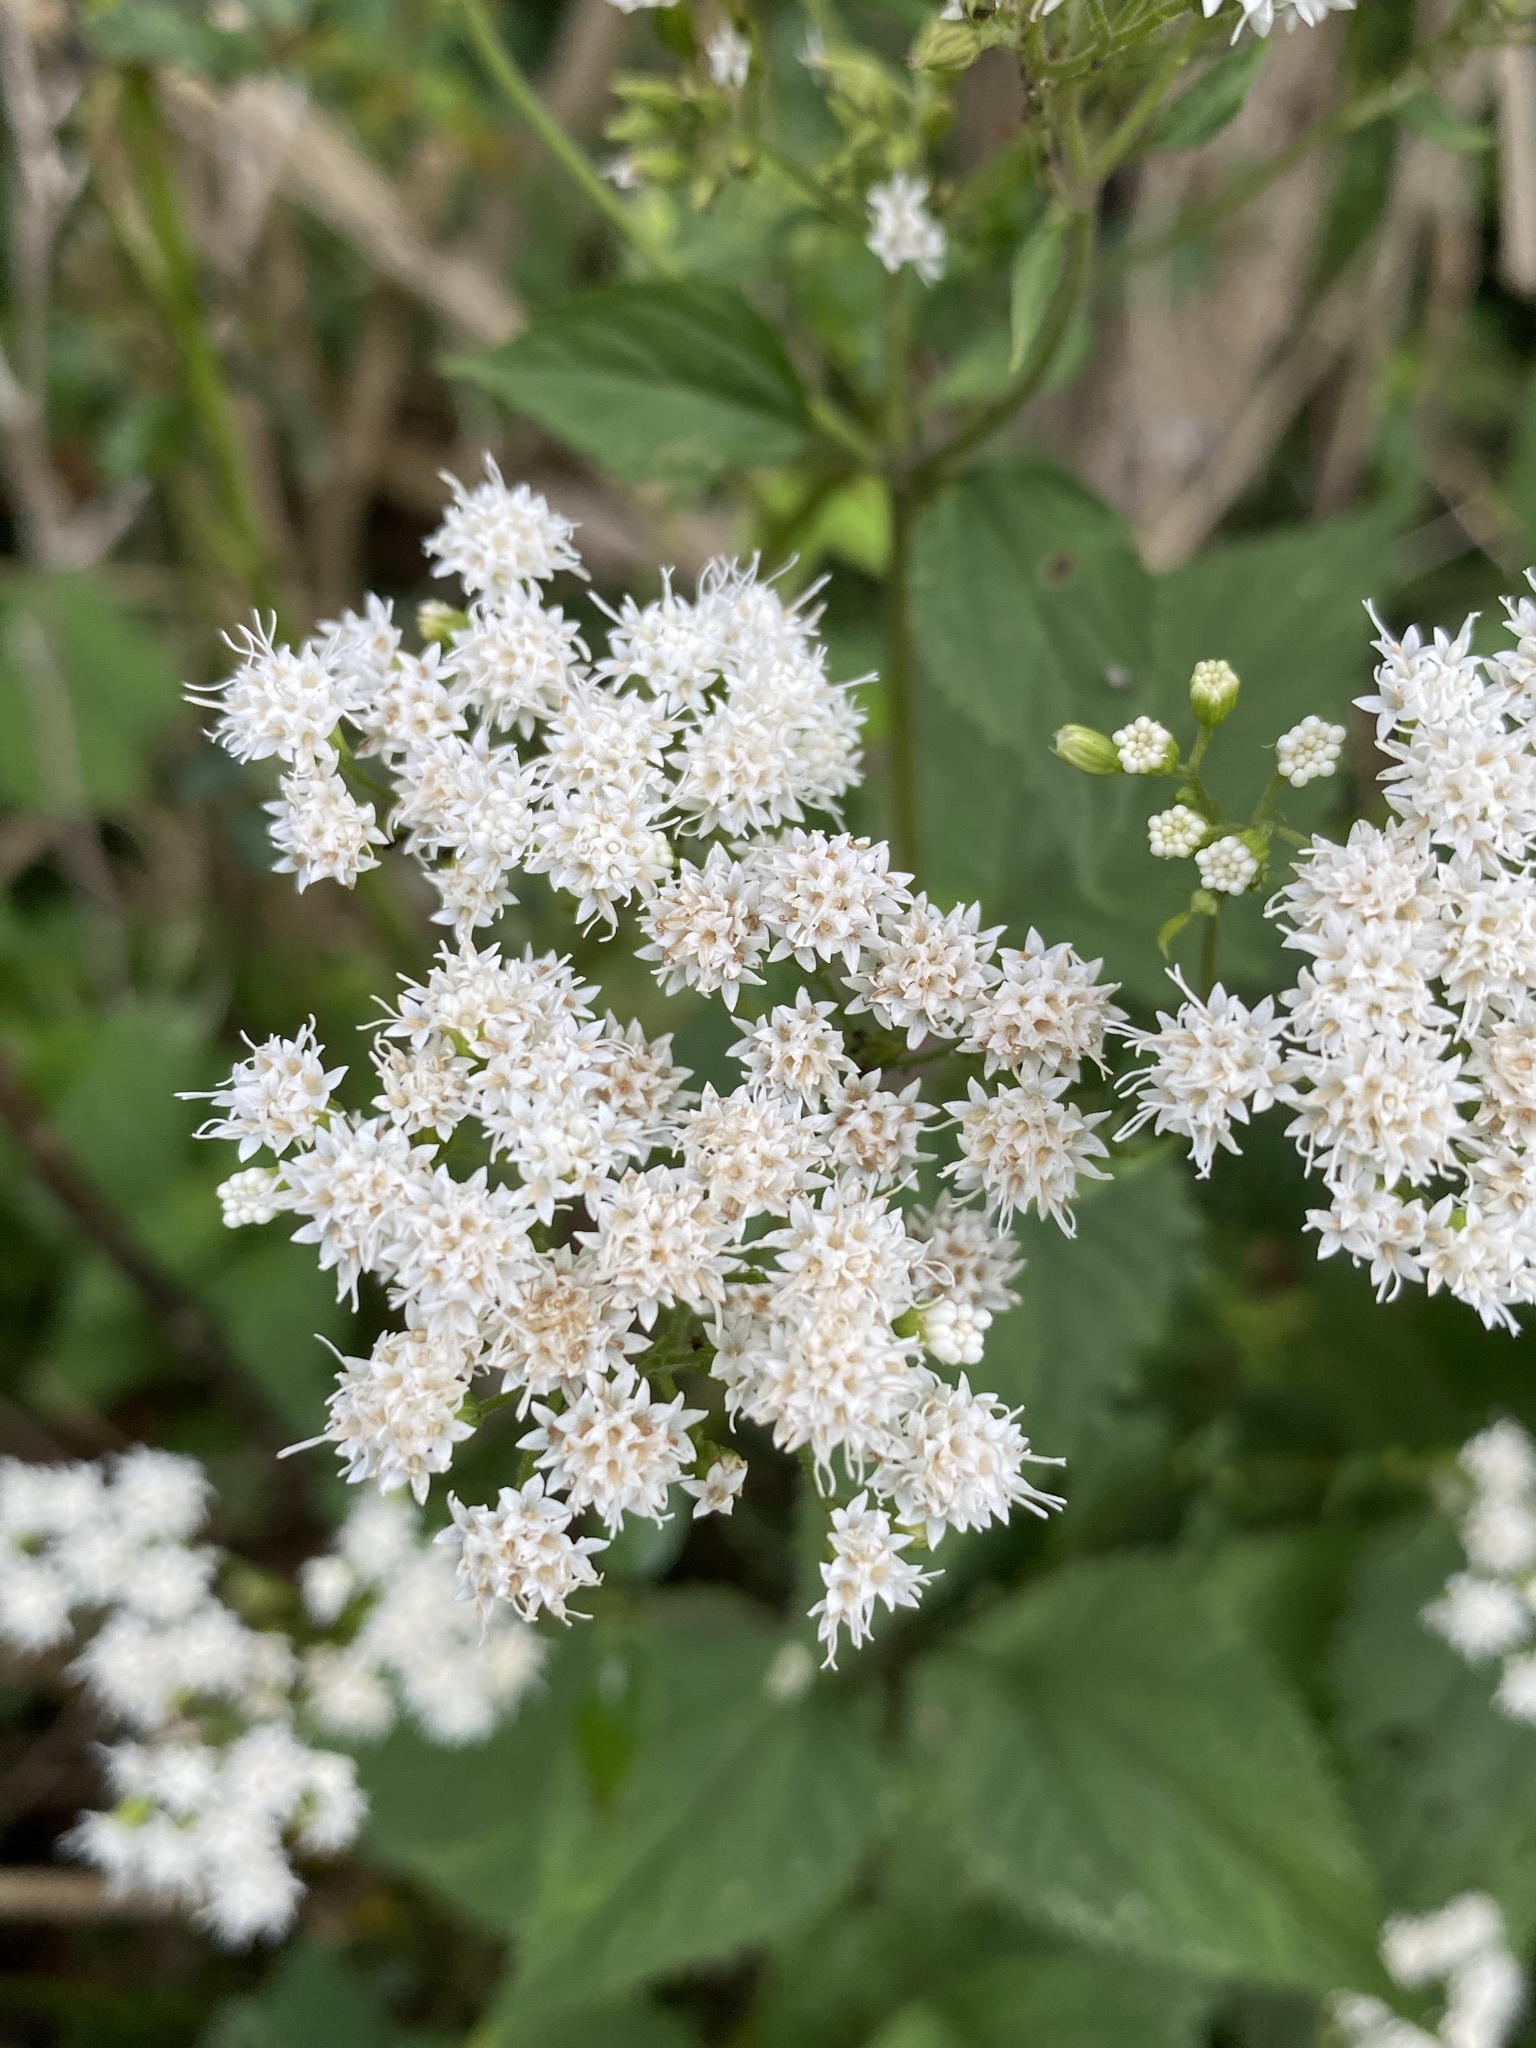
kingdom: Plantae
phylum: Tracheophyta
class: Magnoliopsida
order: Asterales
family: Asteraceae
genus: Ageratina
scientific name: Ageratina altissima
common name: White snakeroot
